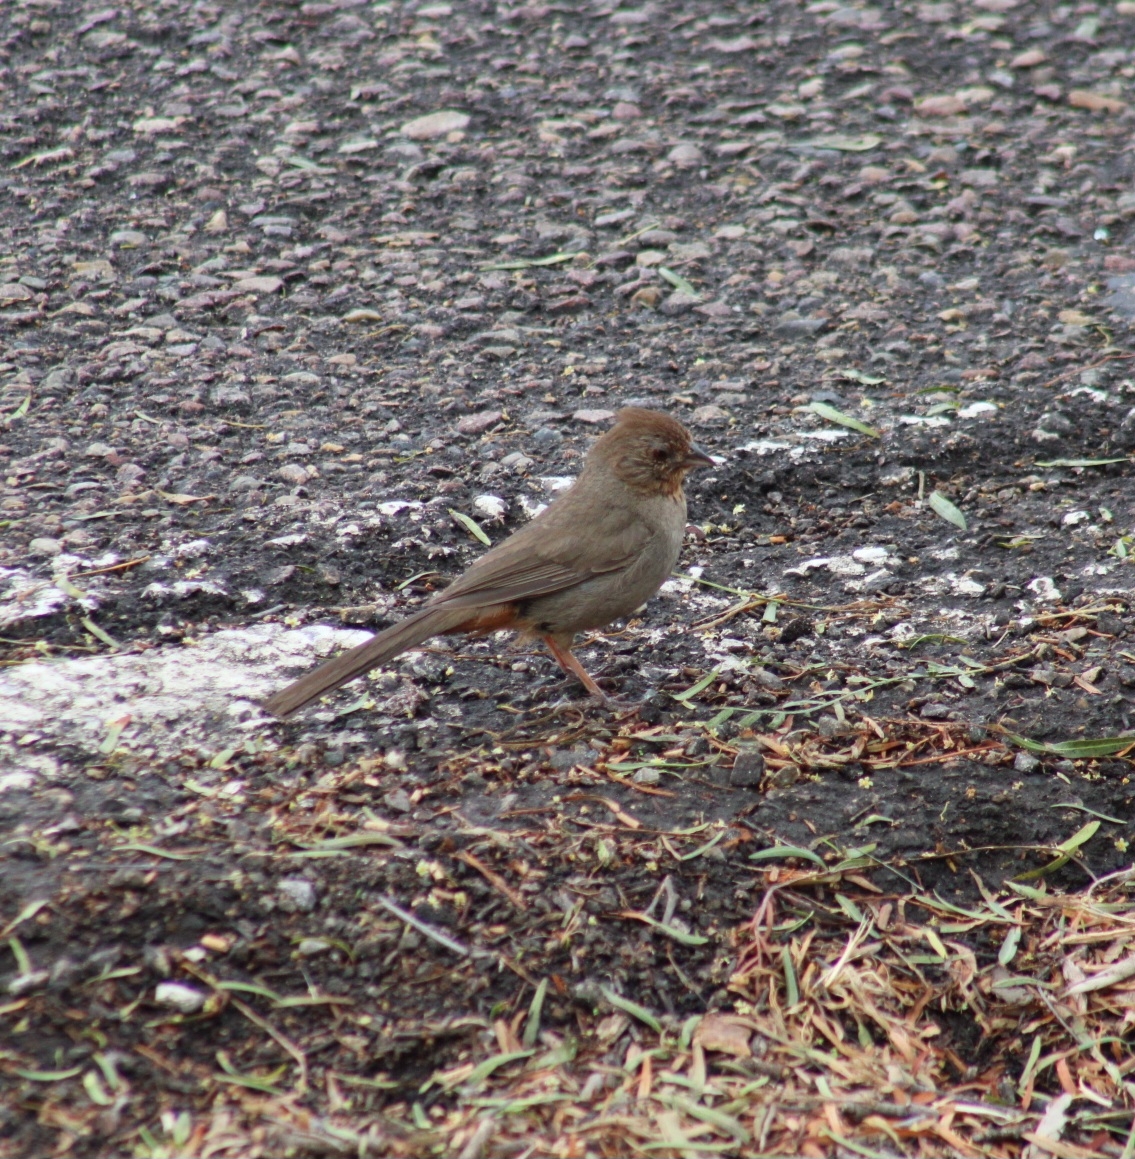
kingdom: Animalia
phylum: Chordata
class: Aves
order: Passeriformes
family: Passerellidae
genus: Melozone
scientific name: Melozone crissalis
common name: California towhee
